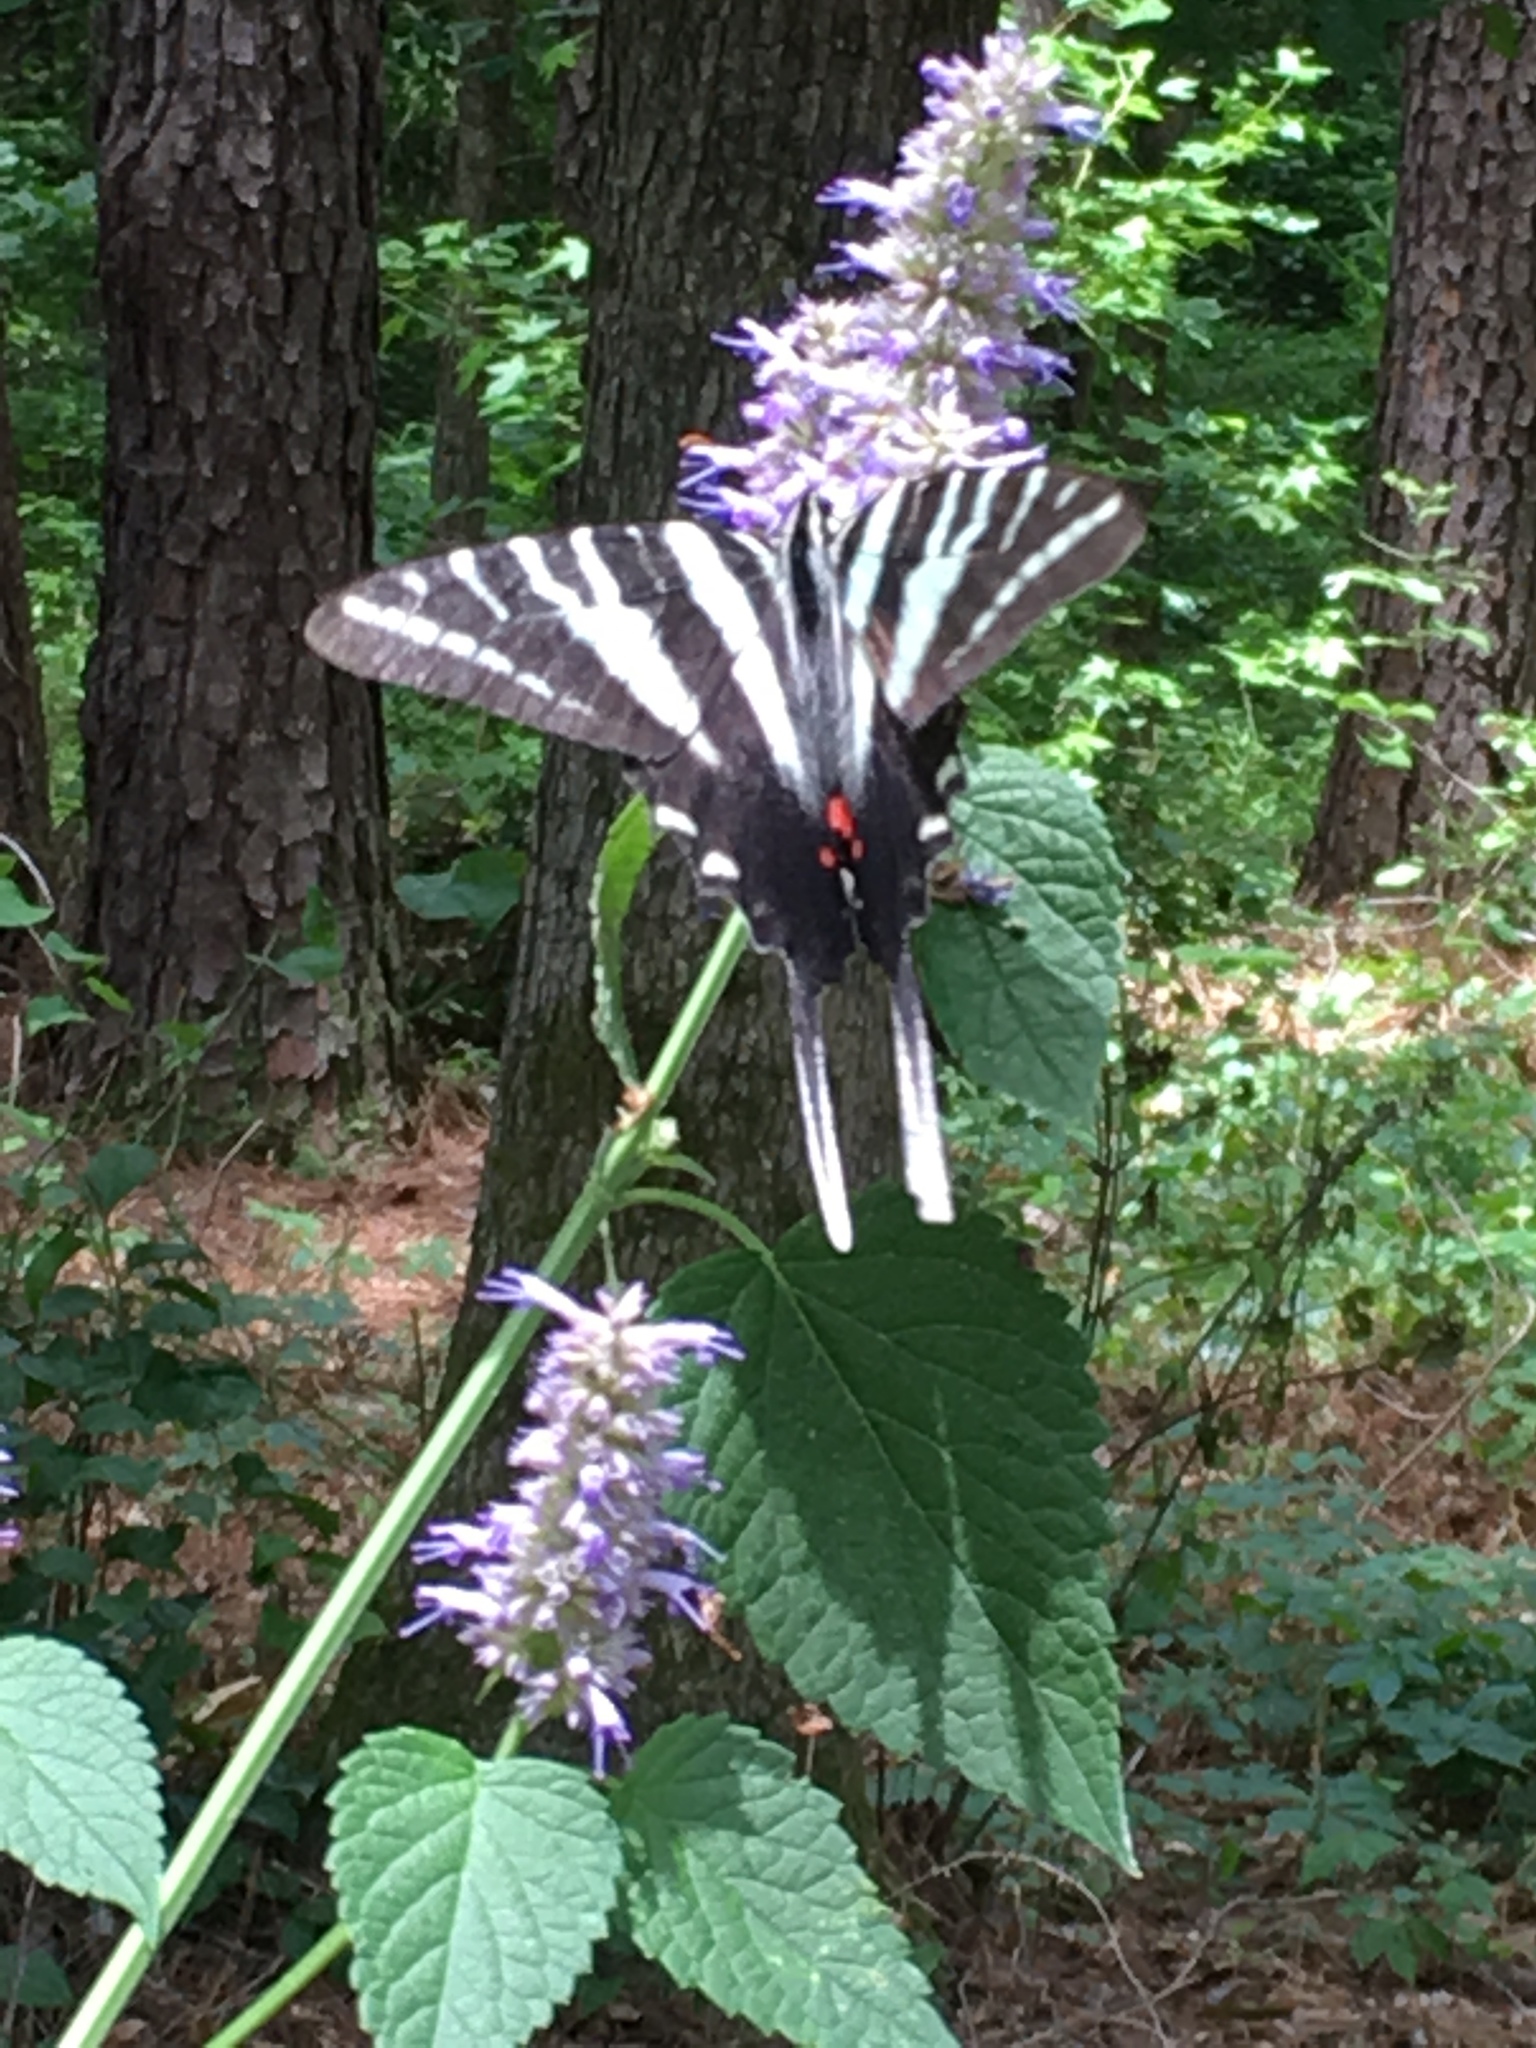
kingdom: Animalia
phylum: Arthropoda
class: Insecta
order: Lepidoptera
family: Papilionidae
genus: Protographium
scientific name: Protographium marcellus
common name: Zebra swallowtail
